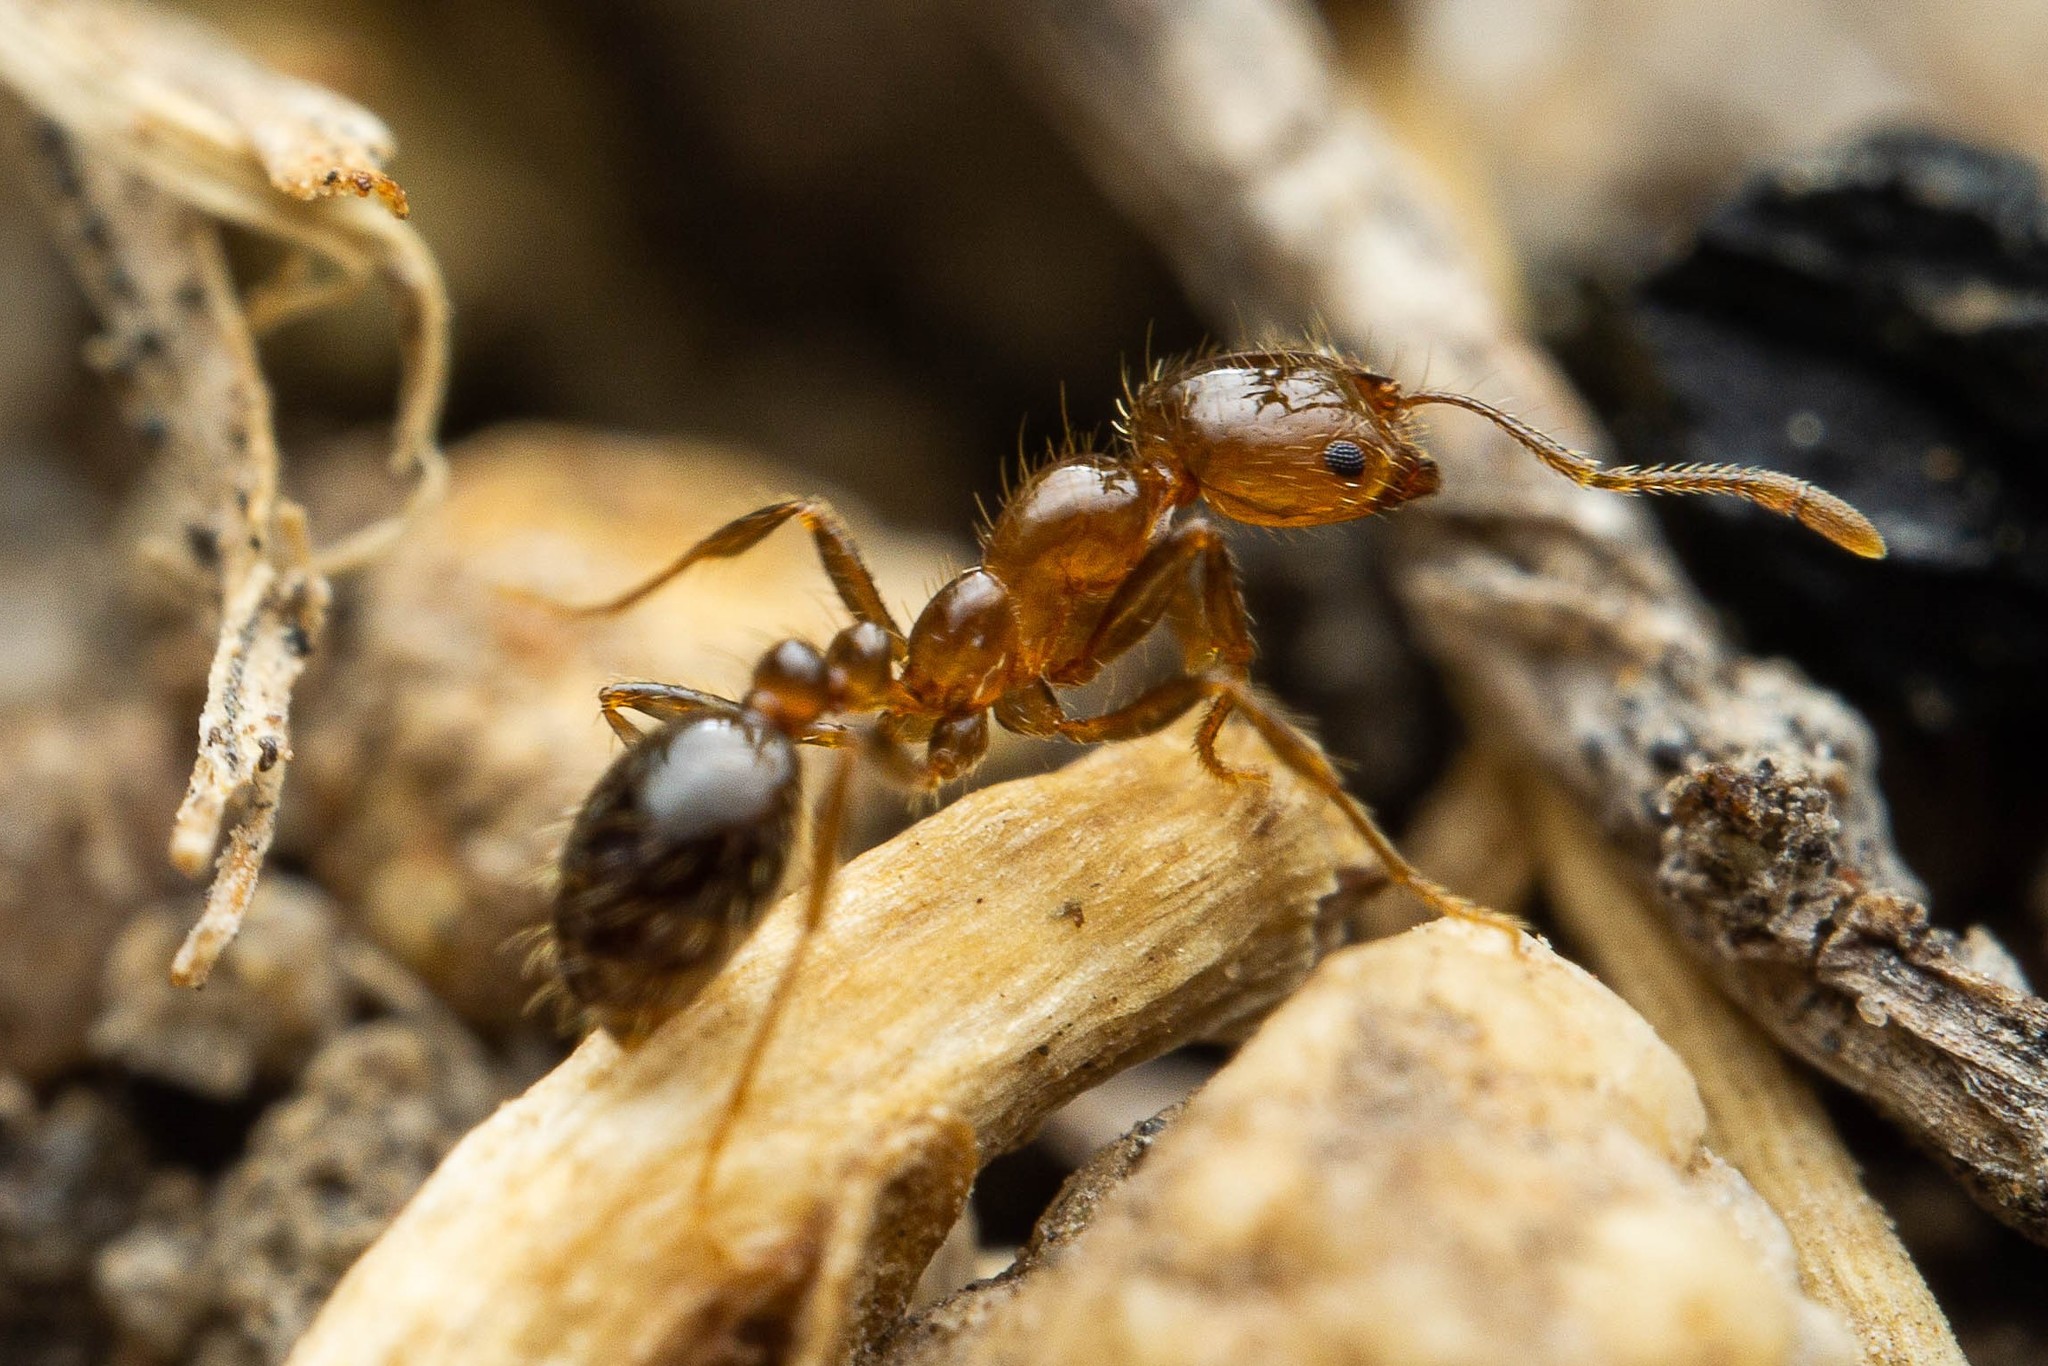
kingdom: Animalia
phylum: Arthropoda
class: Insecta
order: Hymenoptera
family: Formicidae
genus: Solenopsis
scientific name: Solenopsis xyloni
